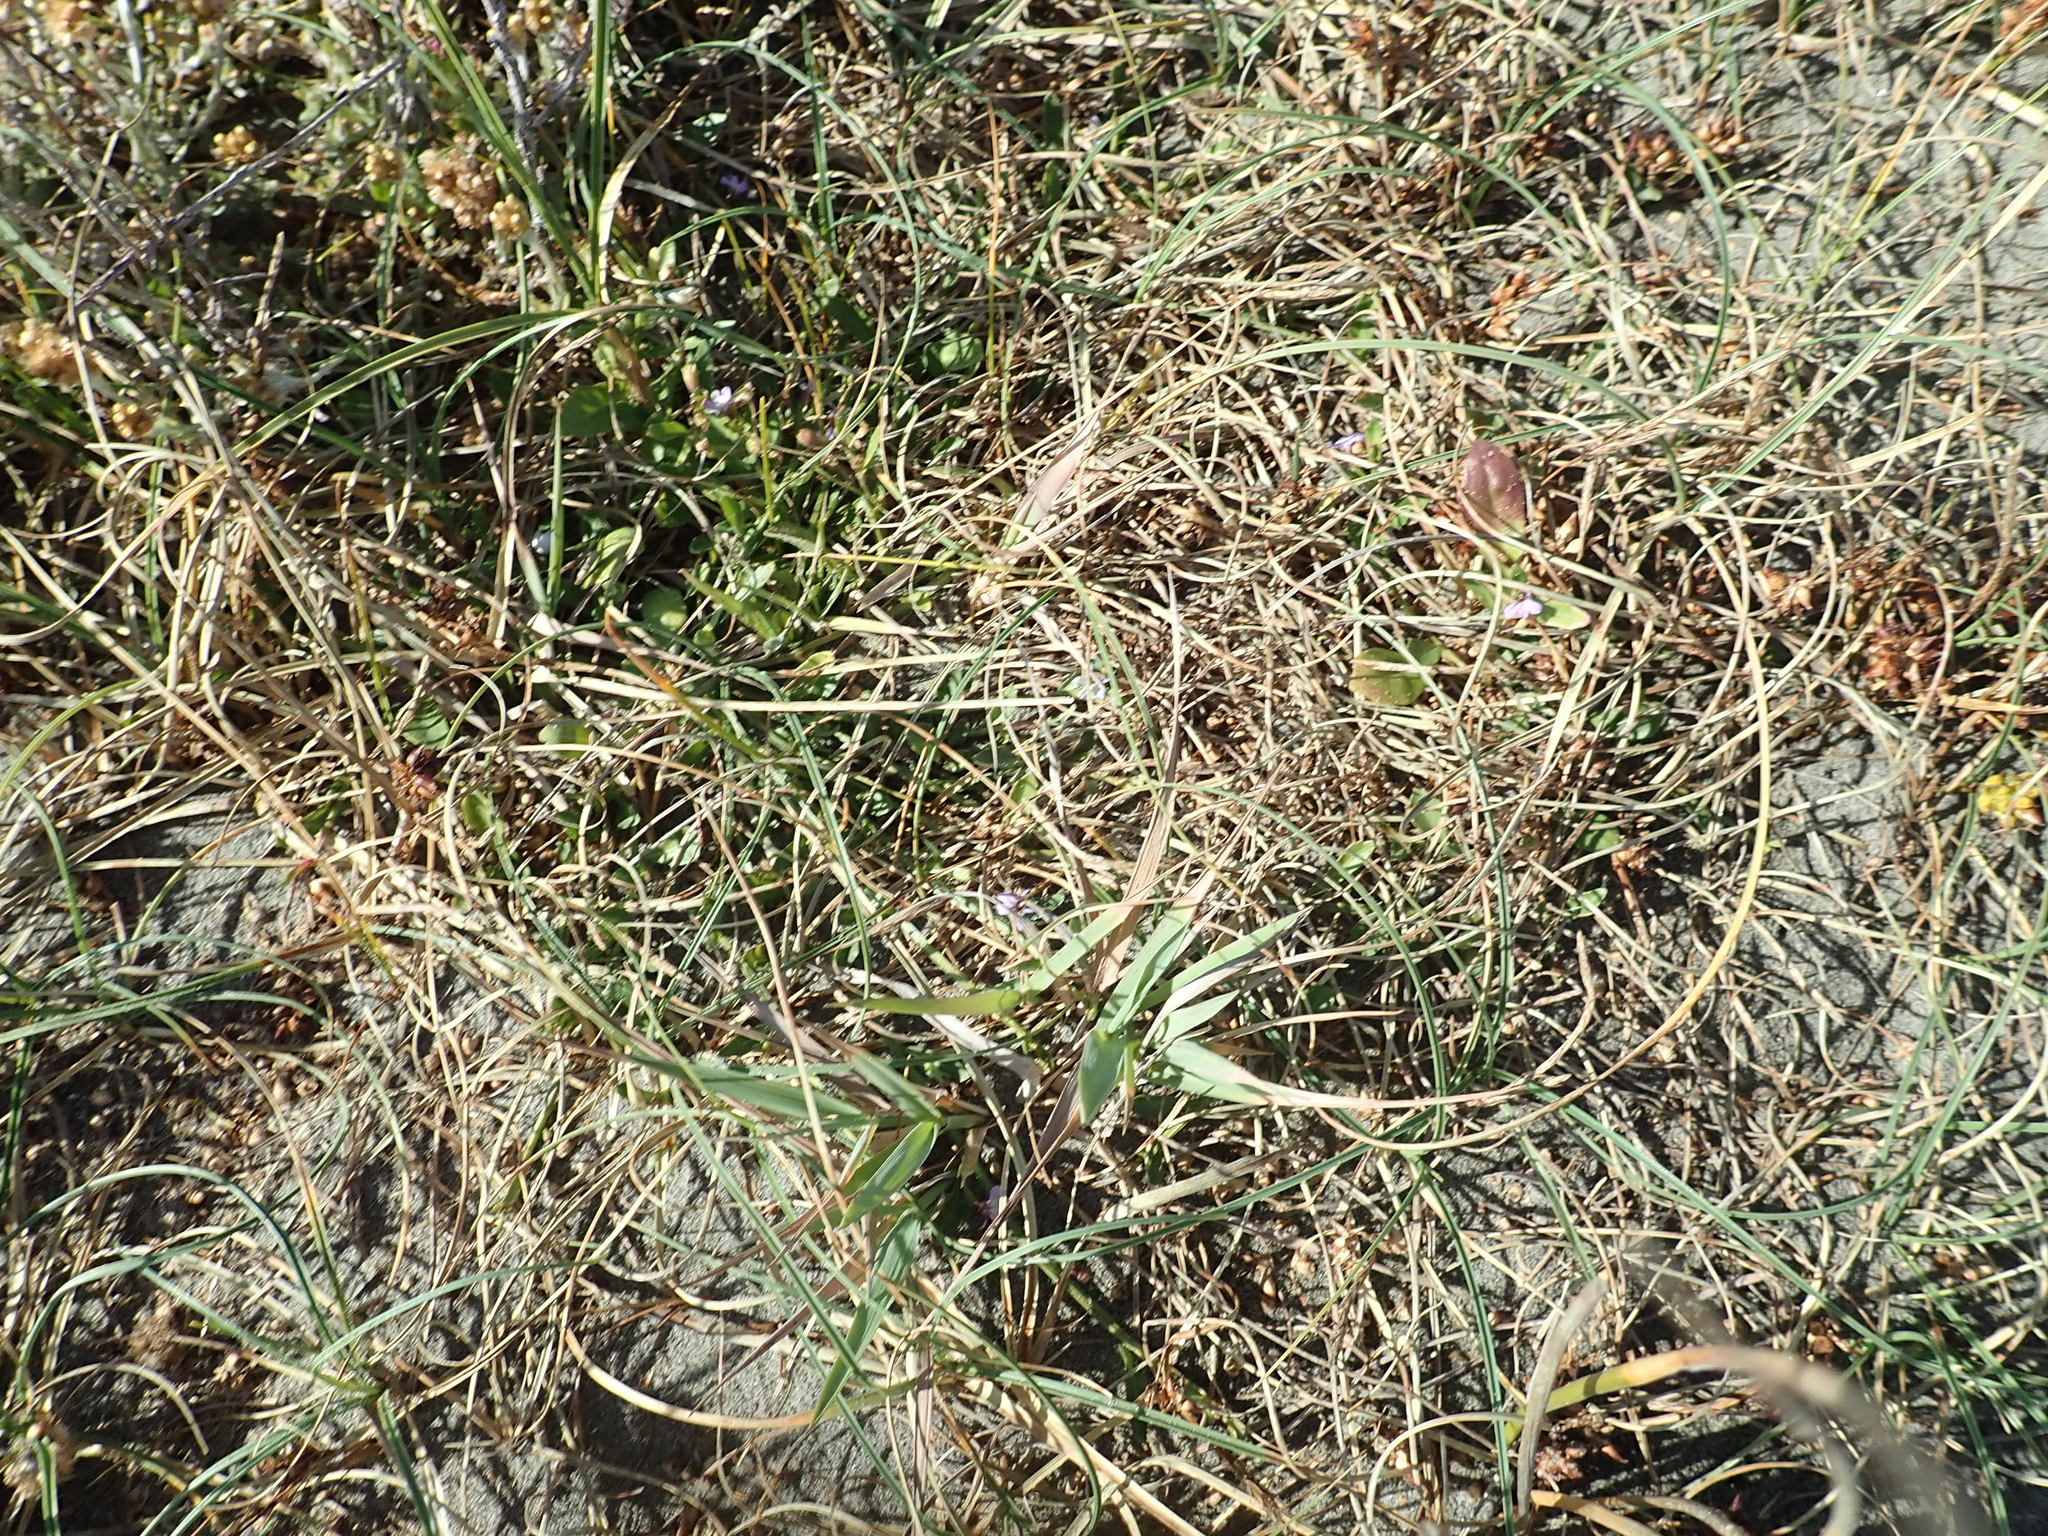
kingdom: Plantae
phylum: Tracheophyta
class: Magnoliopsida
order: Asterales
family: Campanulaceae
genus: Lobelia
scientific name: Lobelia anceps
